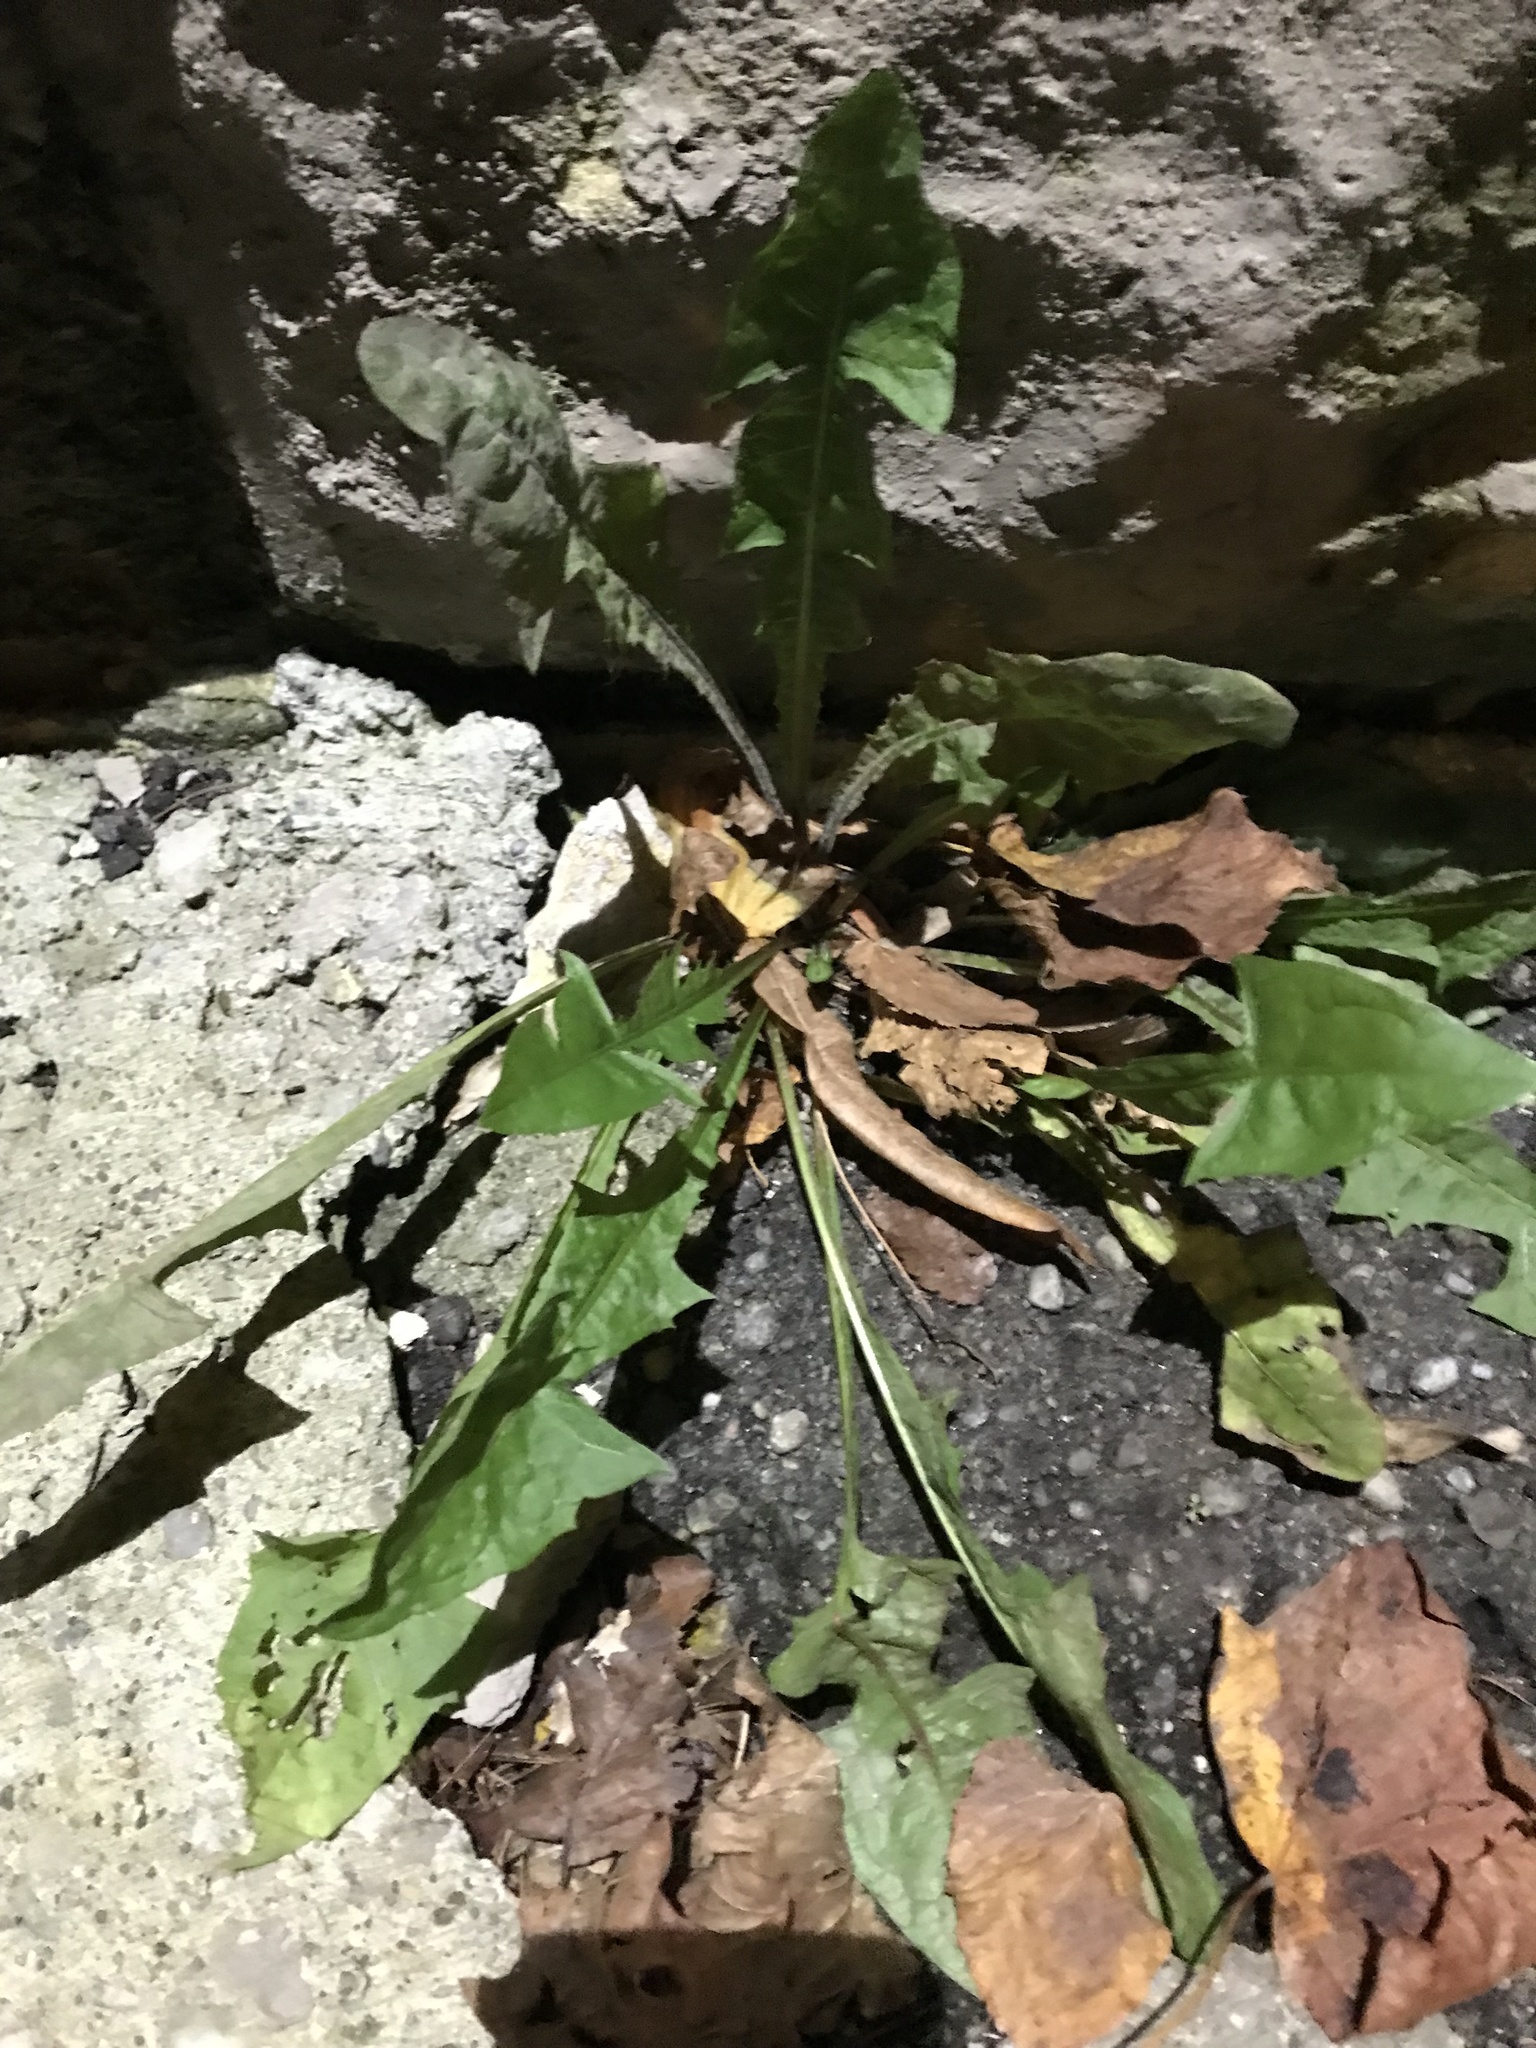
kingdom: Plantae
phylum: Tracheophyta
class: Magnoliopsida
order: Asterales
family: Asteraceae
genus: Taraxacum
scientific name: Taraxacum officinale
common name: Common dandelion
